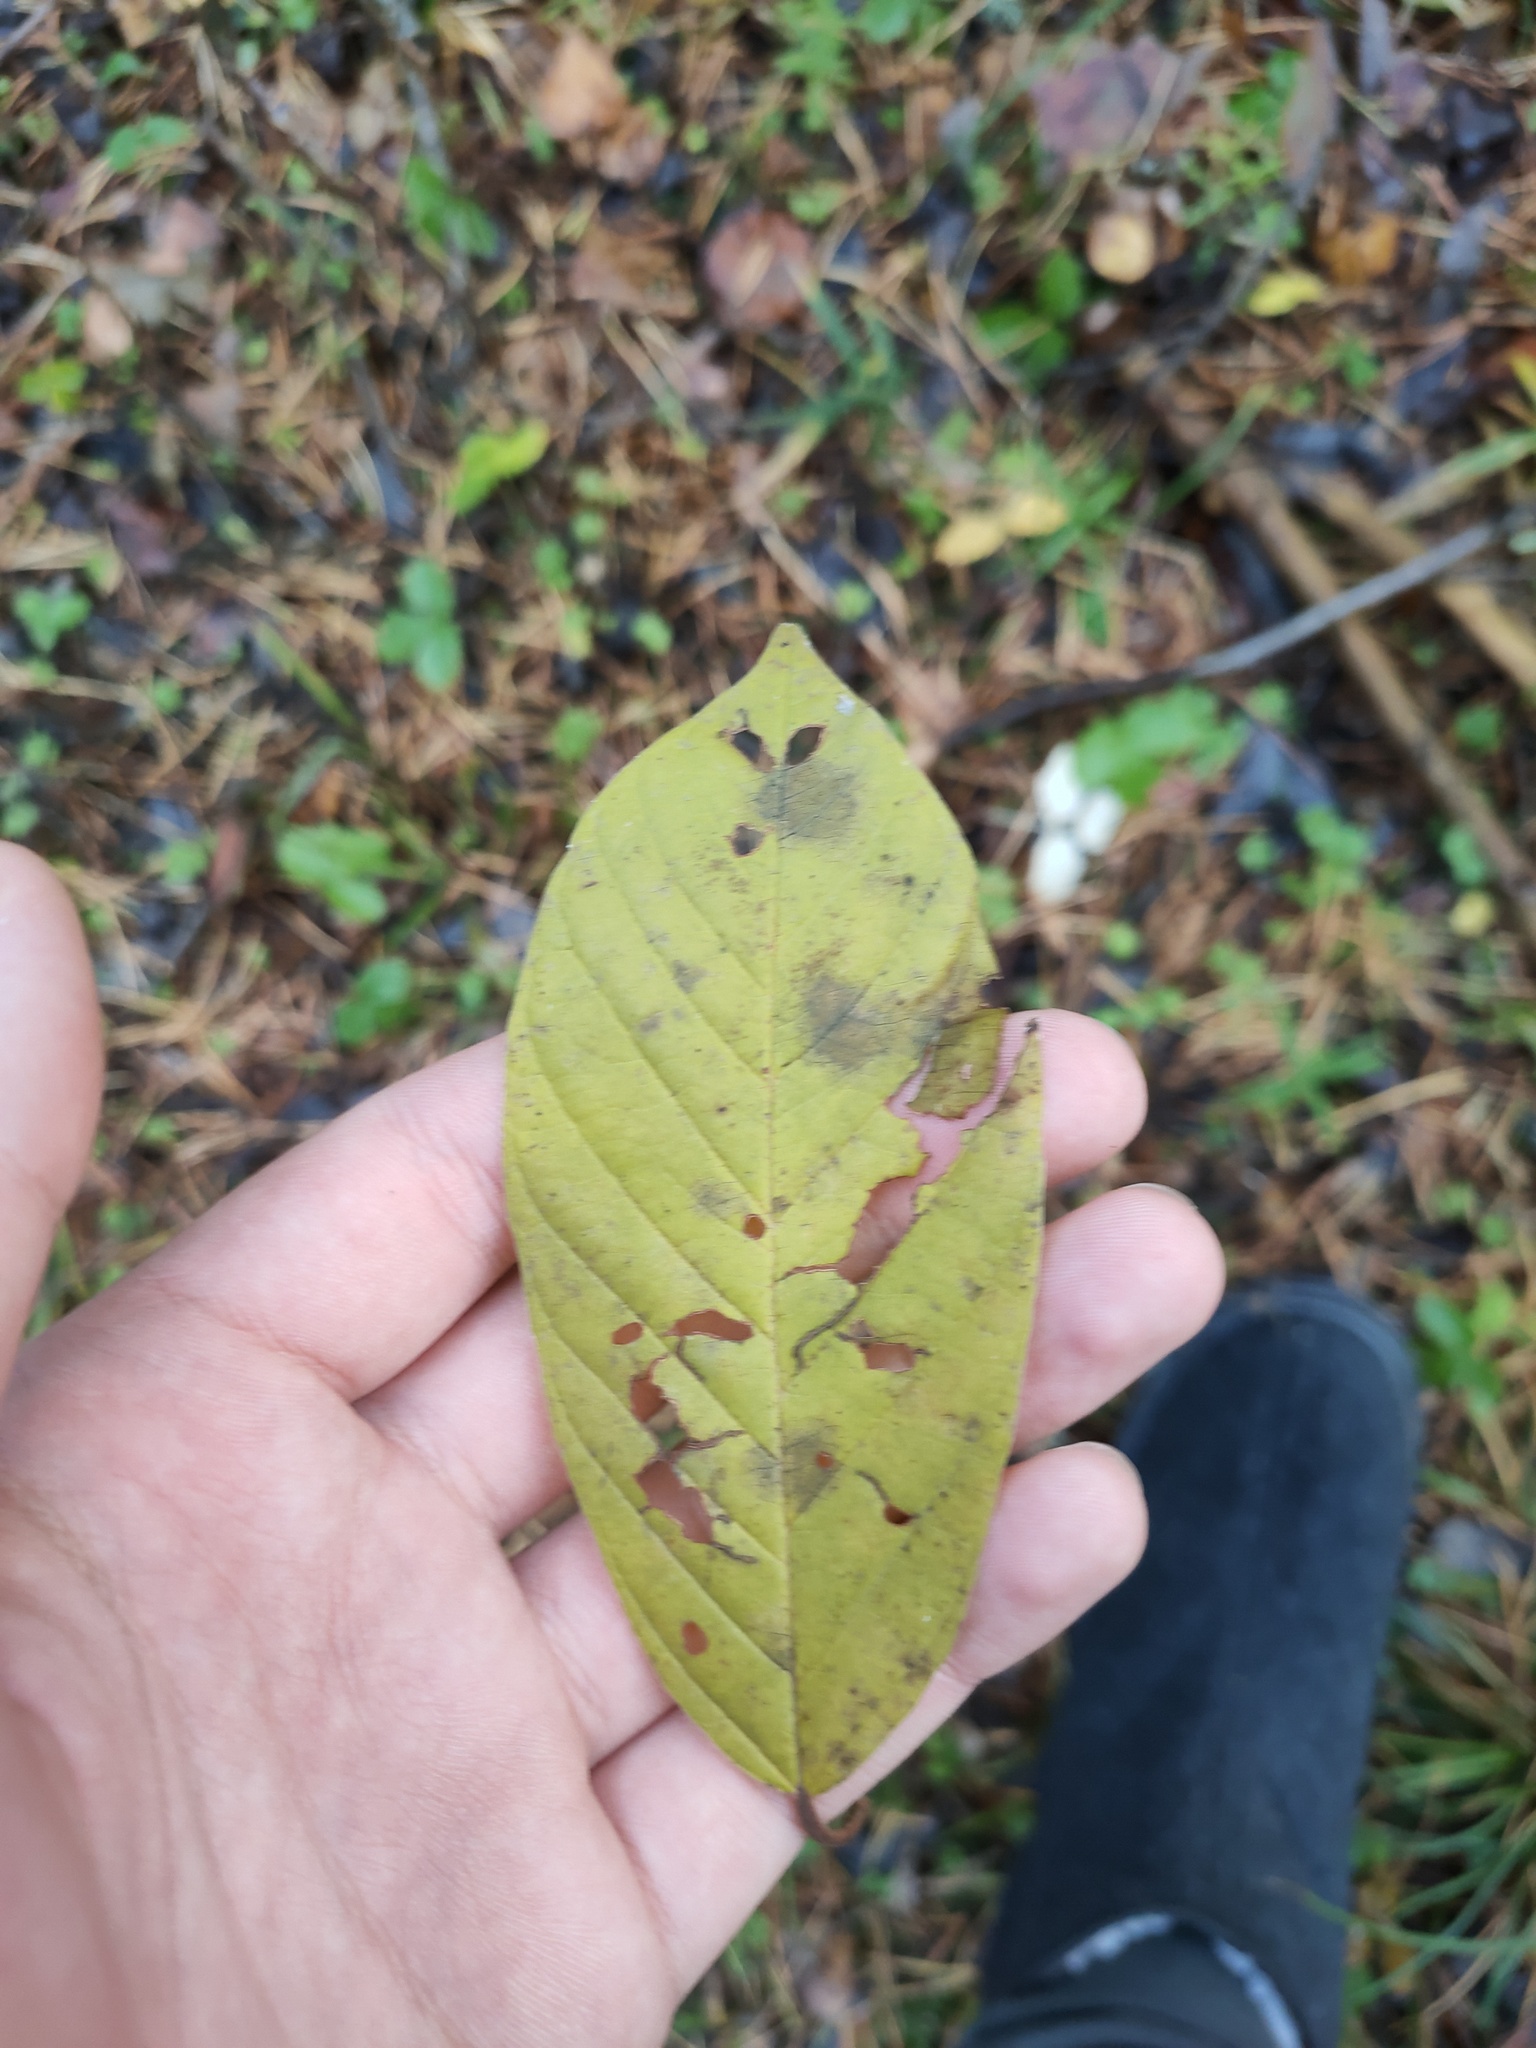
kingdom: Plantae
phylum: Tracheophyta
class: Magnoliopsida
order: Rosales
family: Rhamnaceae
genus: Frangula
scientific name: Frangula alnus
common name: Alder buckthorn
